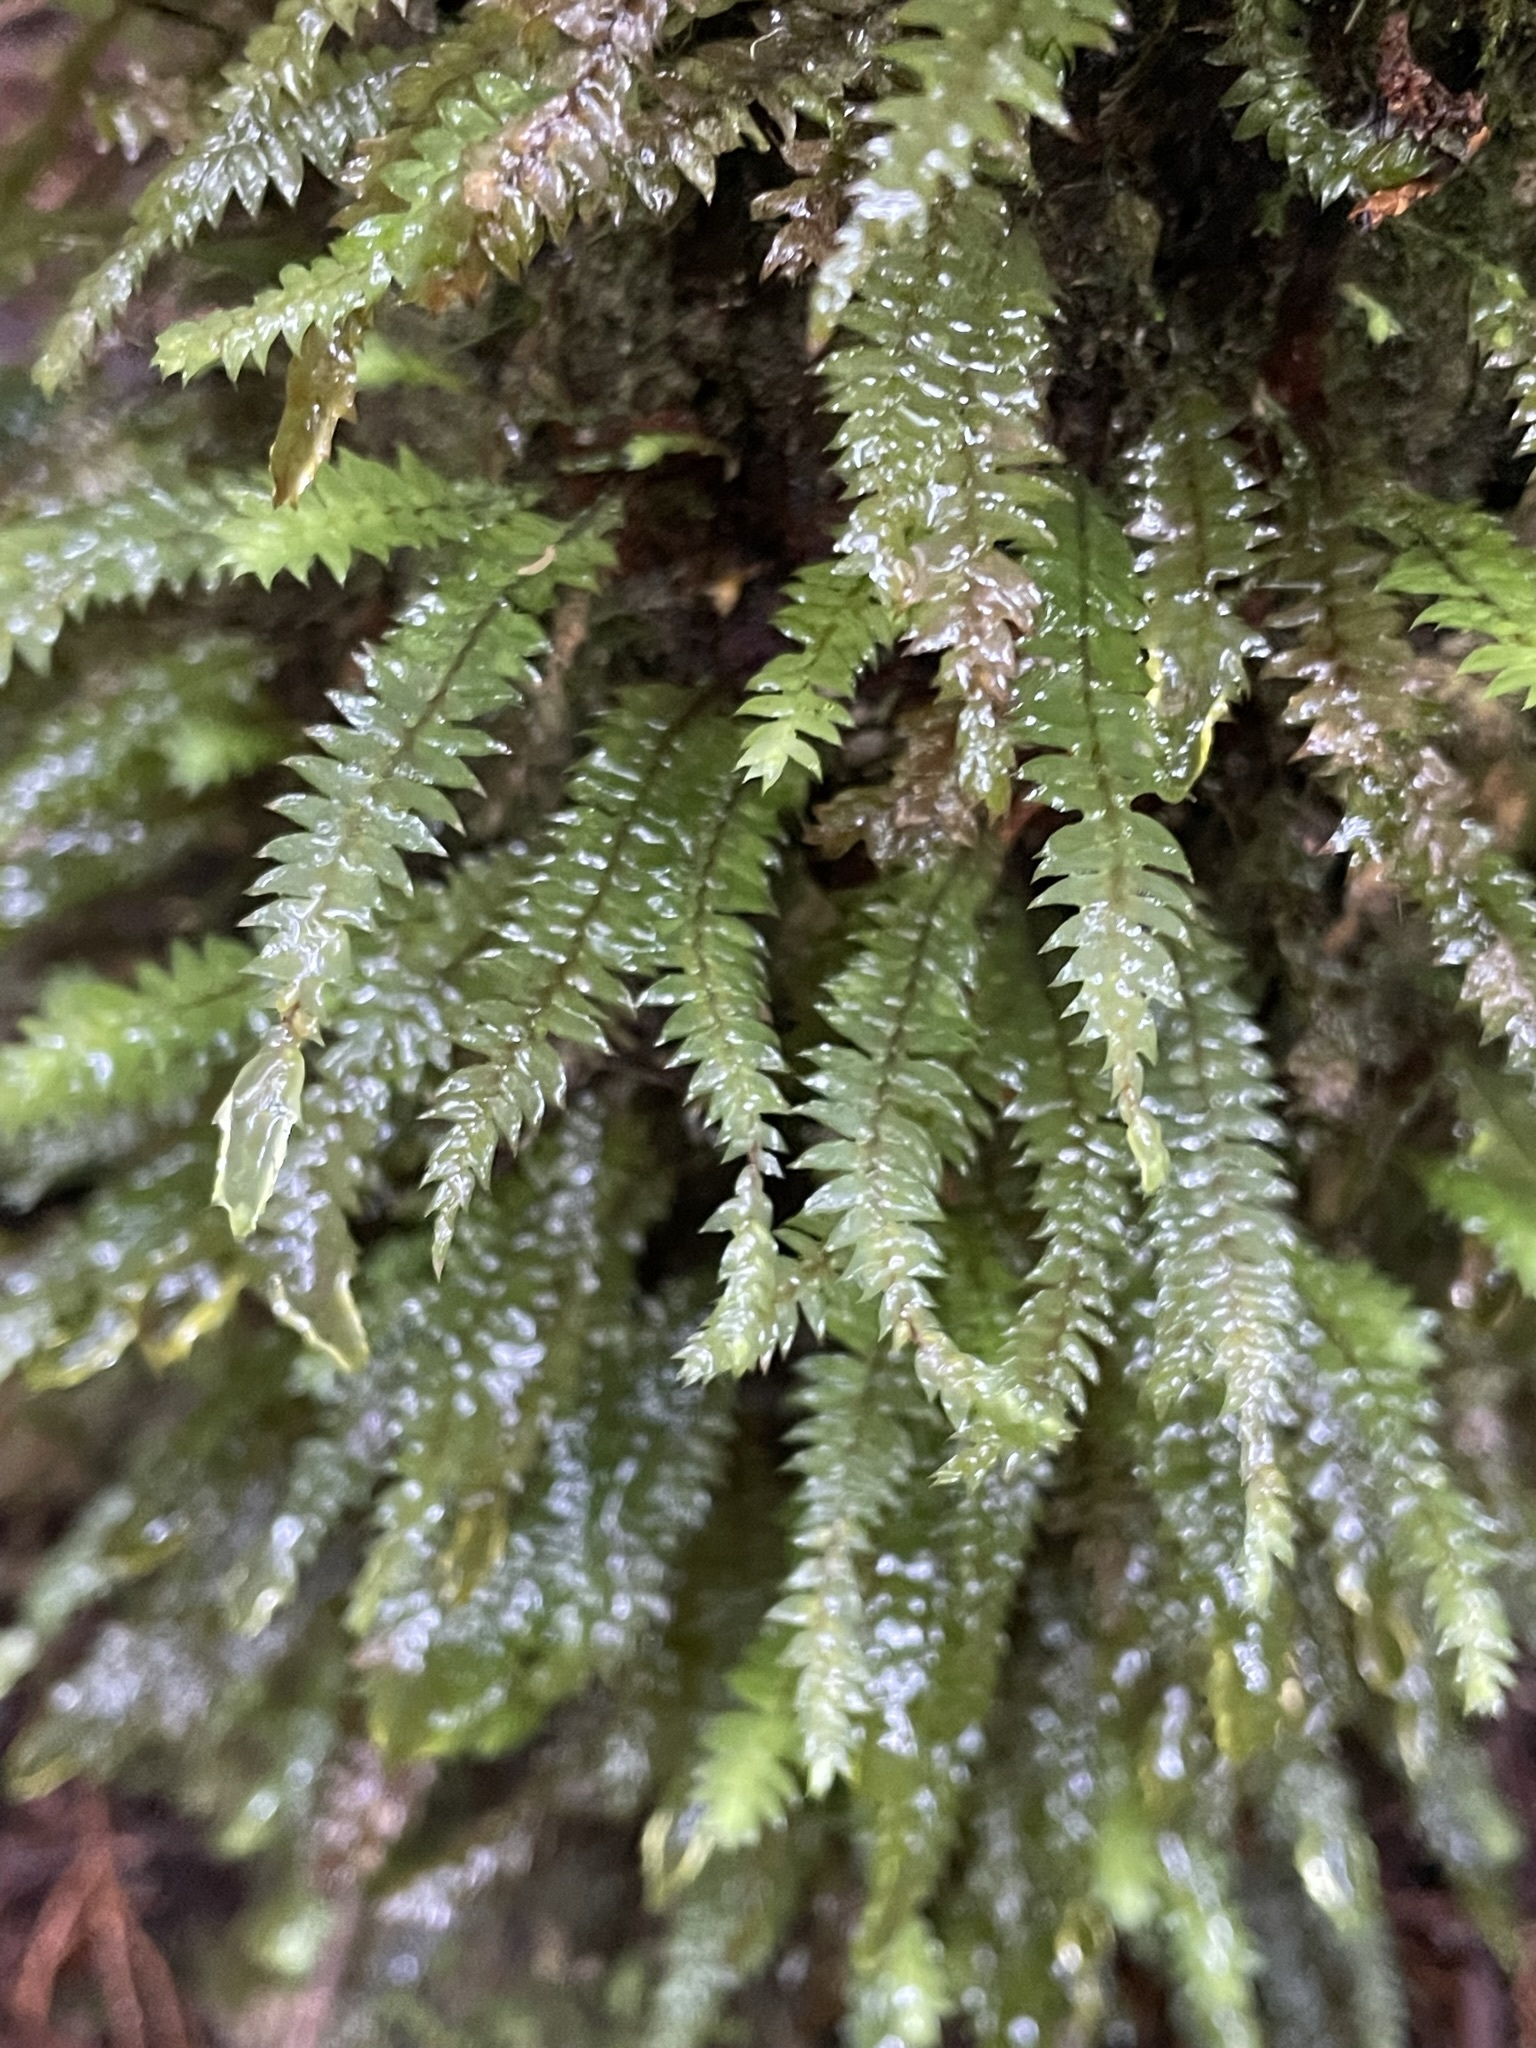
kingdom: Plantae
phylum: Bryophyta
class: Bryopsida
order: Hypopterygiales
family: Hypopterygiaceae
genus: Cyathophorum
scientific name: Cyathophorum bulbosum
